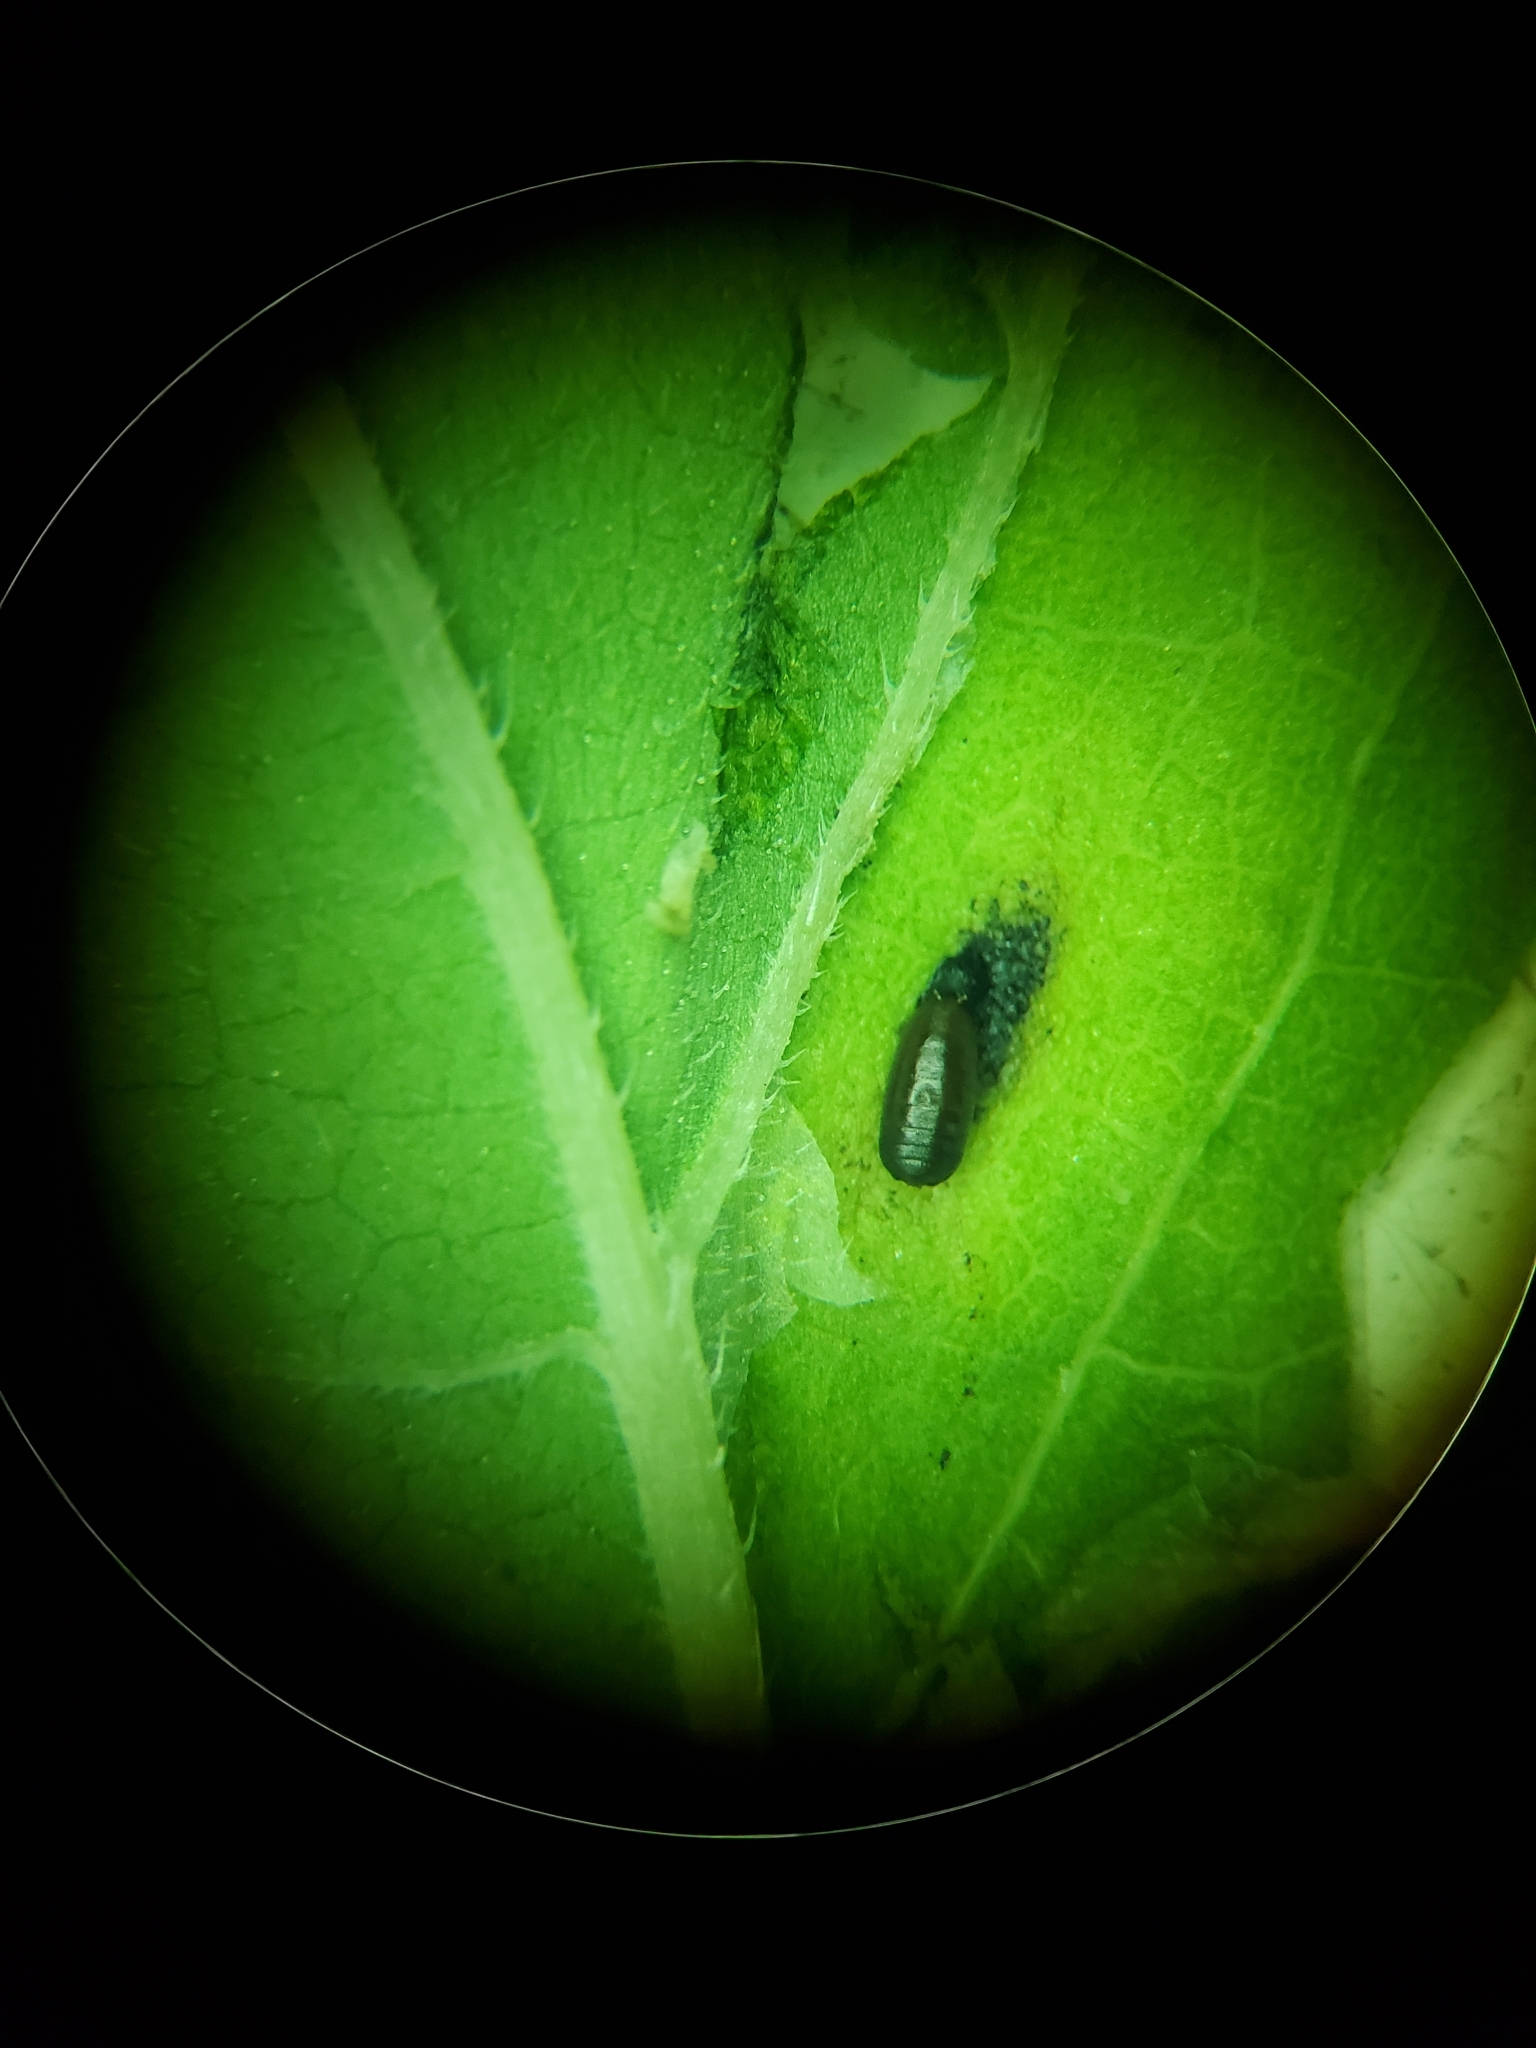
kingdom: Animalia
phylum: Arthropoda
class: Insecta
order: Diptera
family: Agromyzidae
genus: Calycomyza
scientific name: Calycomyza platyptera
